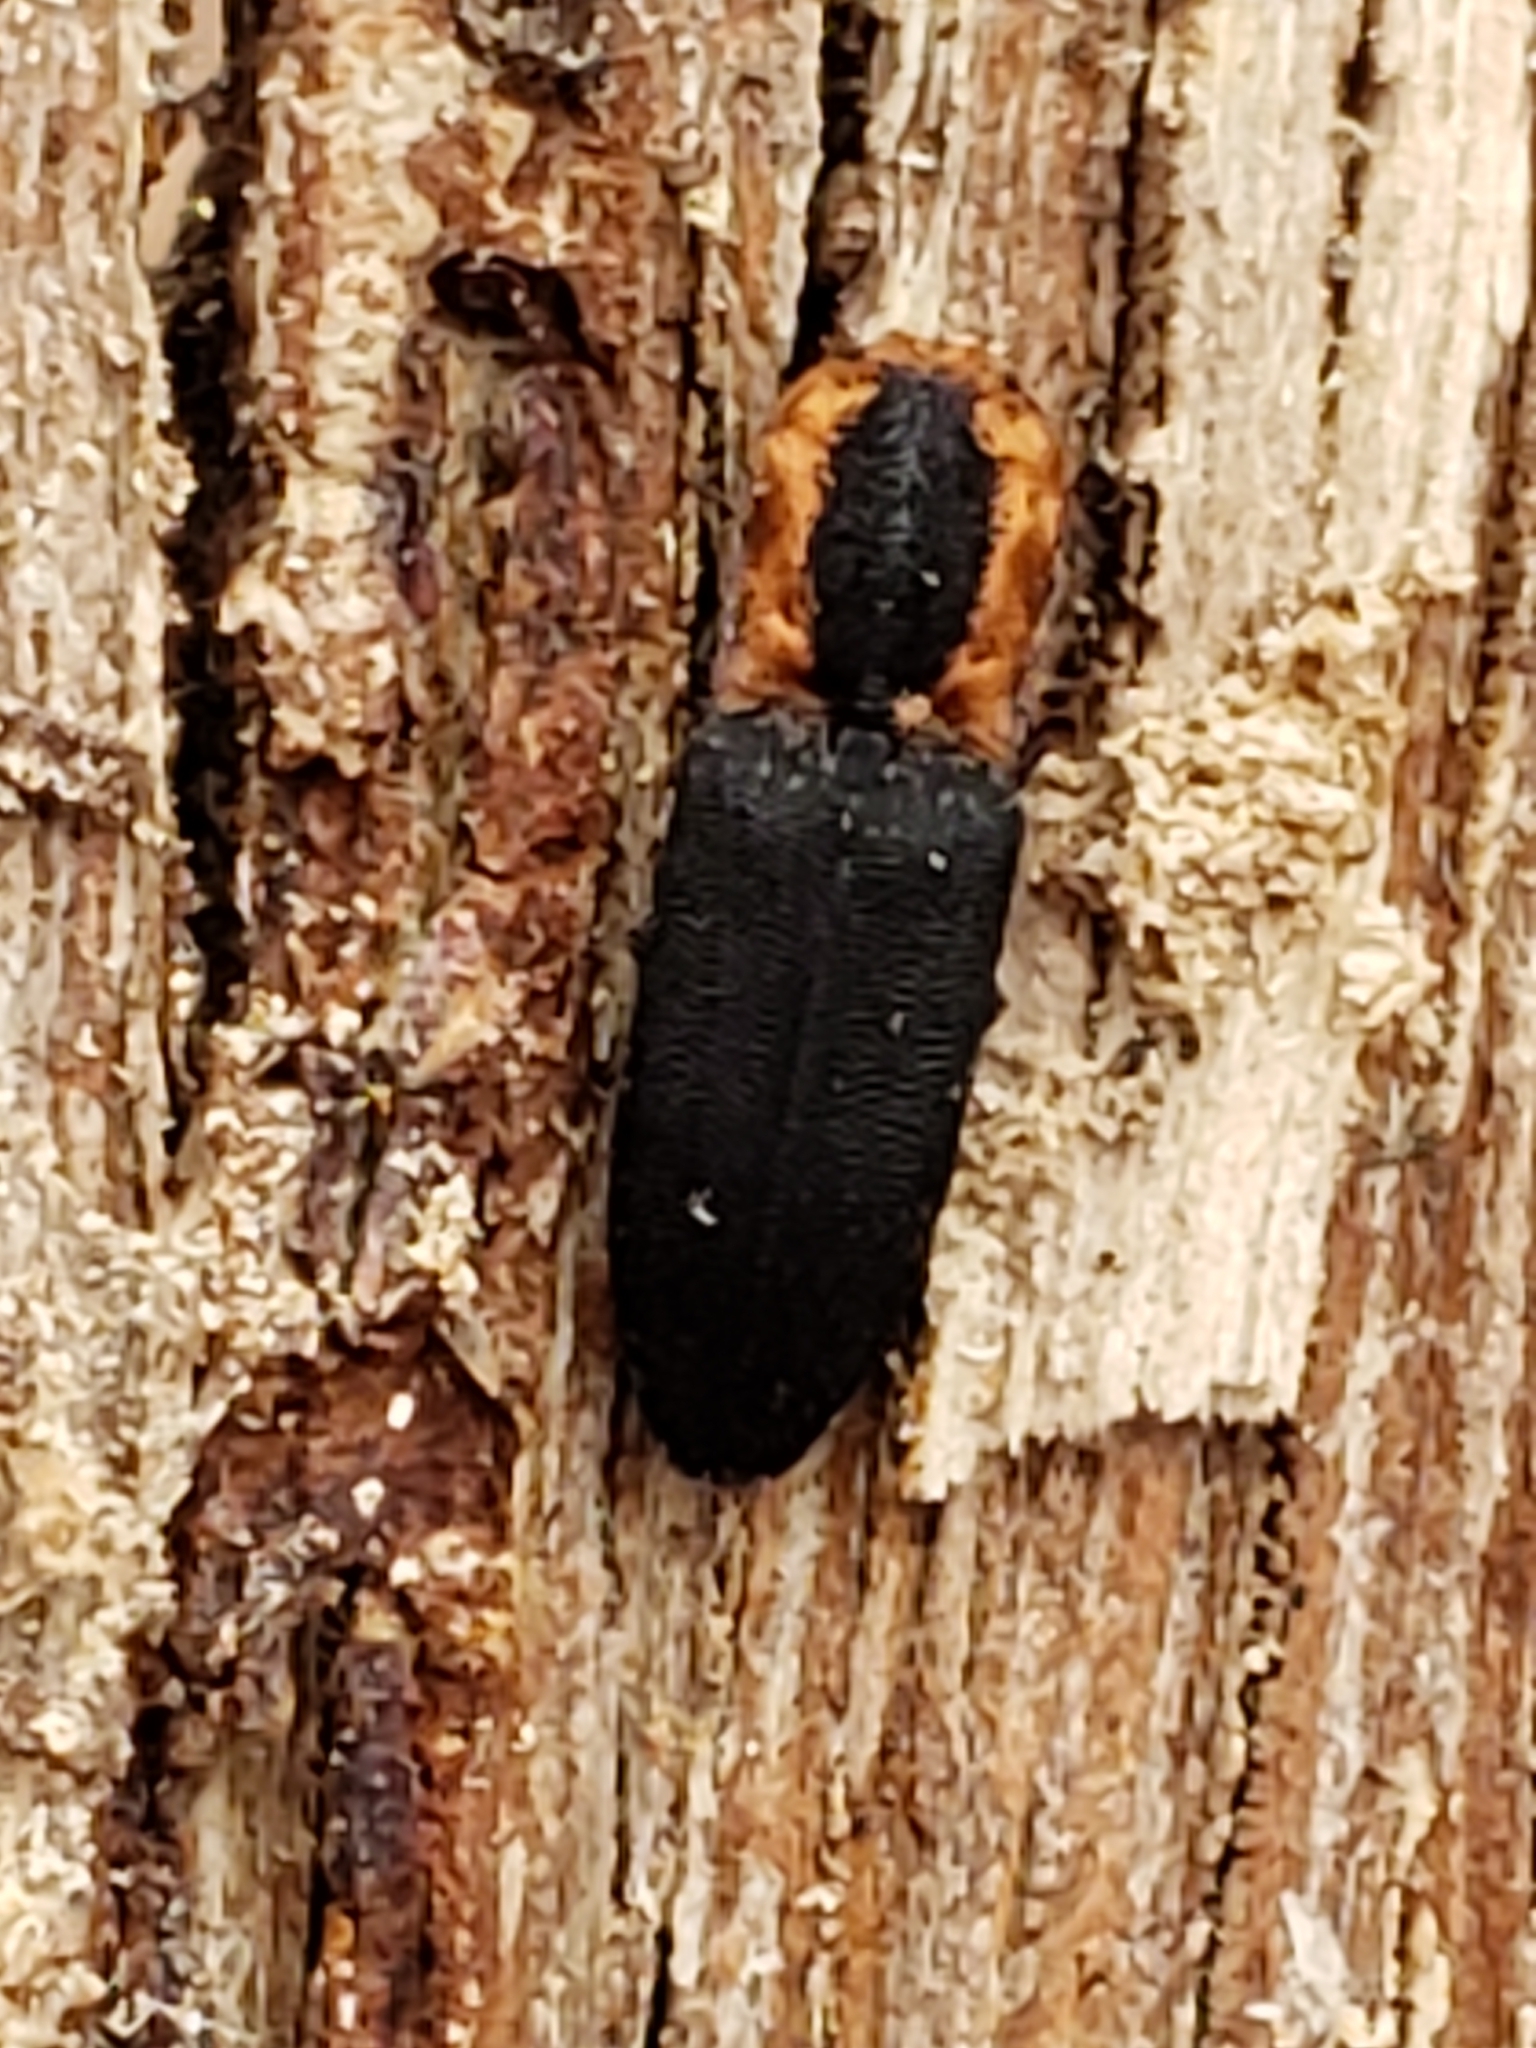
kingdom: Animalia
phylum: Arthropoda
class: Insecta
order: Coleoptera
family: Elateridae
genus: Lacon
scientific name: Lacon discoideus
